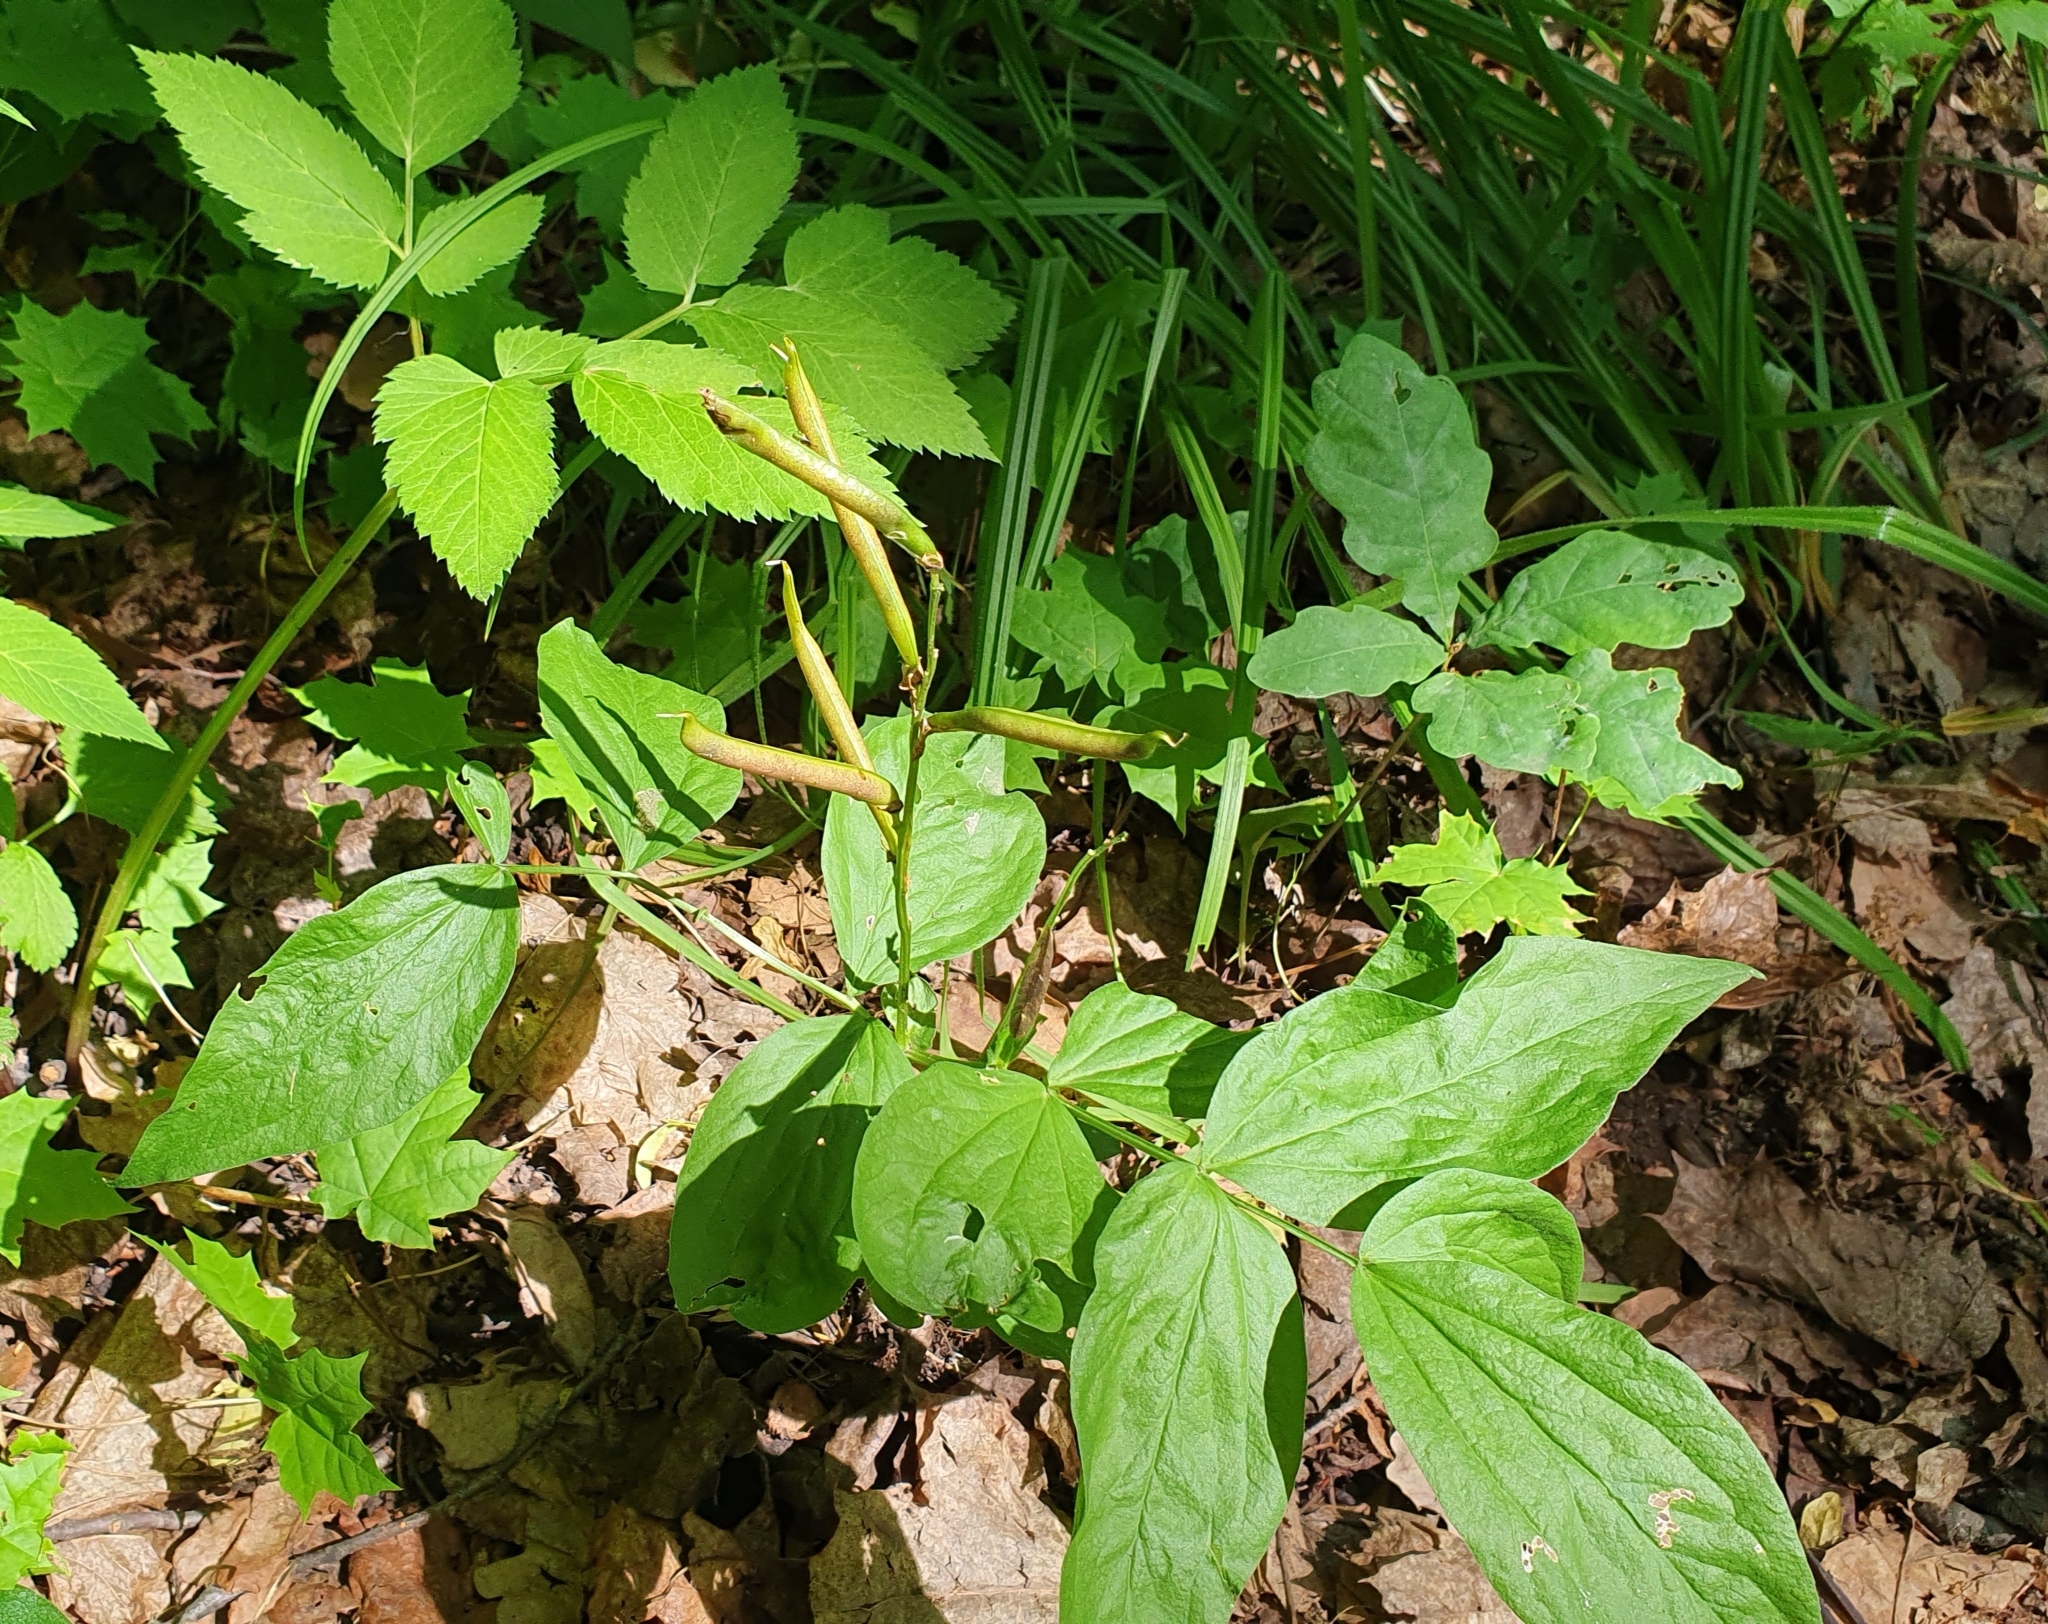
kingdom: Plantae
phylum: Tracheophyta
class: Magnoliopsida
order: Fabales
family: Fabaceae
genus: Lathyrus
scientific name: Lathyrus vernus
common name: Spring pea
